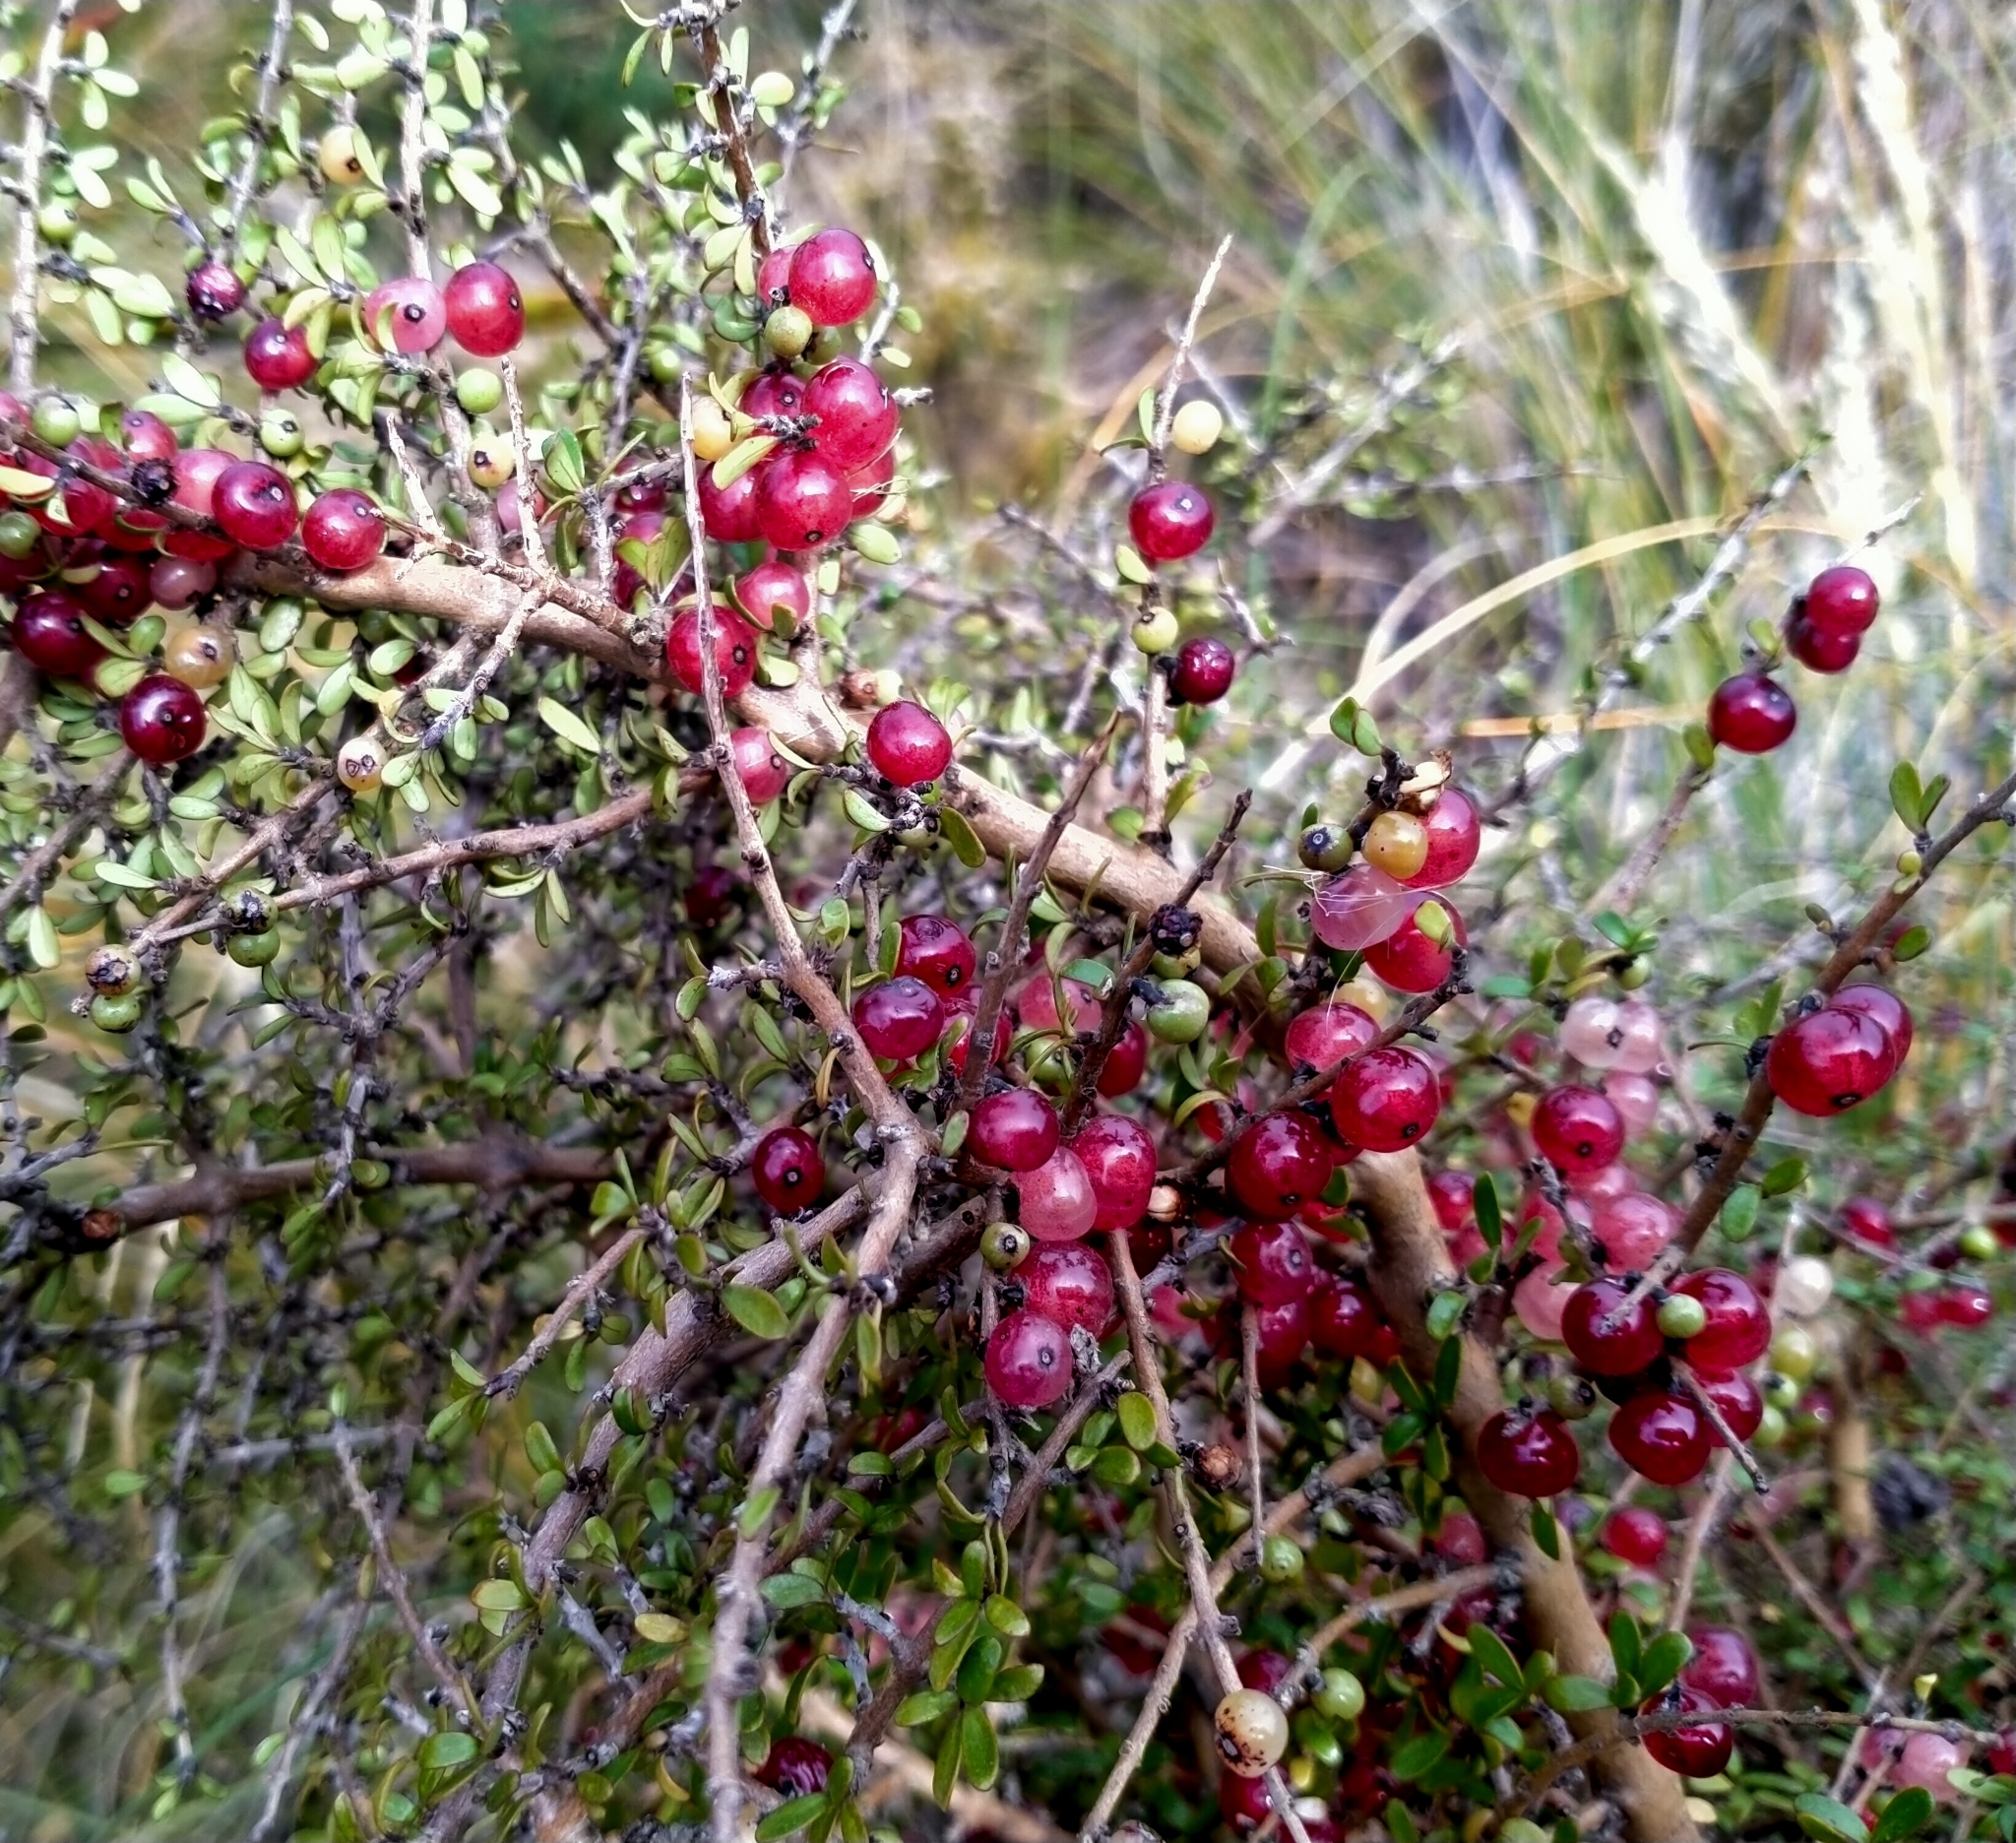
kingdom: Plantae
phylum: Tracheophyta
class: Magnoliopsida
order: Gentianales
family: Rubiaceae
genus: Coprosma
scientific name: Coprosma dumosa
